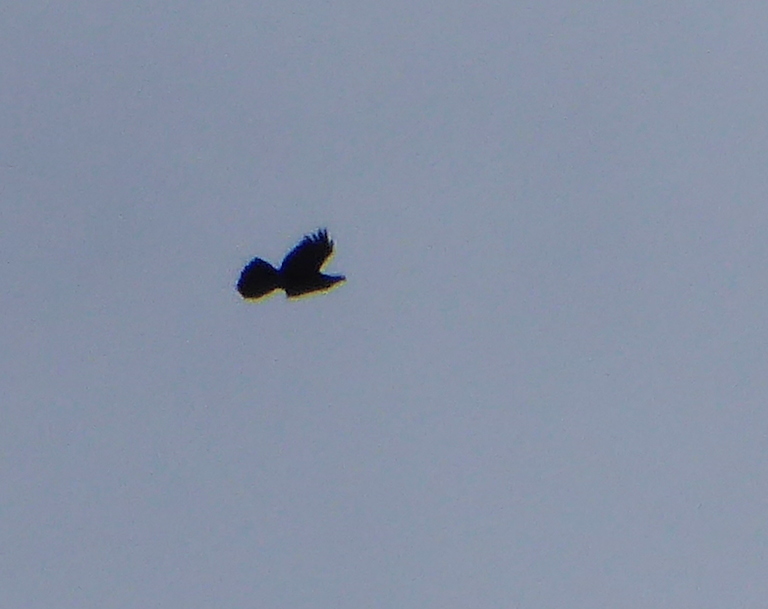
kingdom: Animalia
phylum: Chordata
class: Aves
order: Passeriformes
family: Corvidae
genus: Corvus
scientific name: Corvus corax
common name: Common raven
